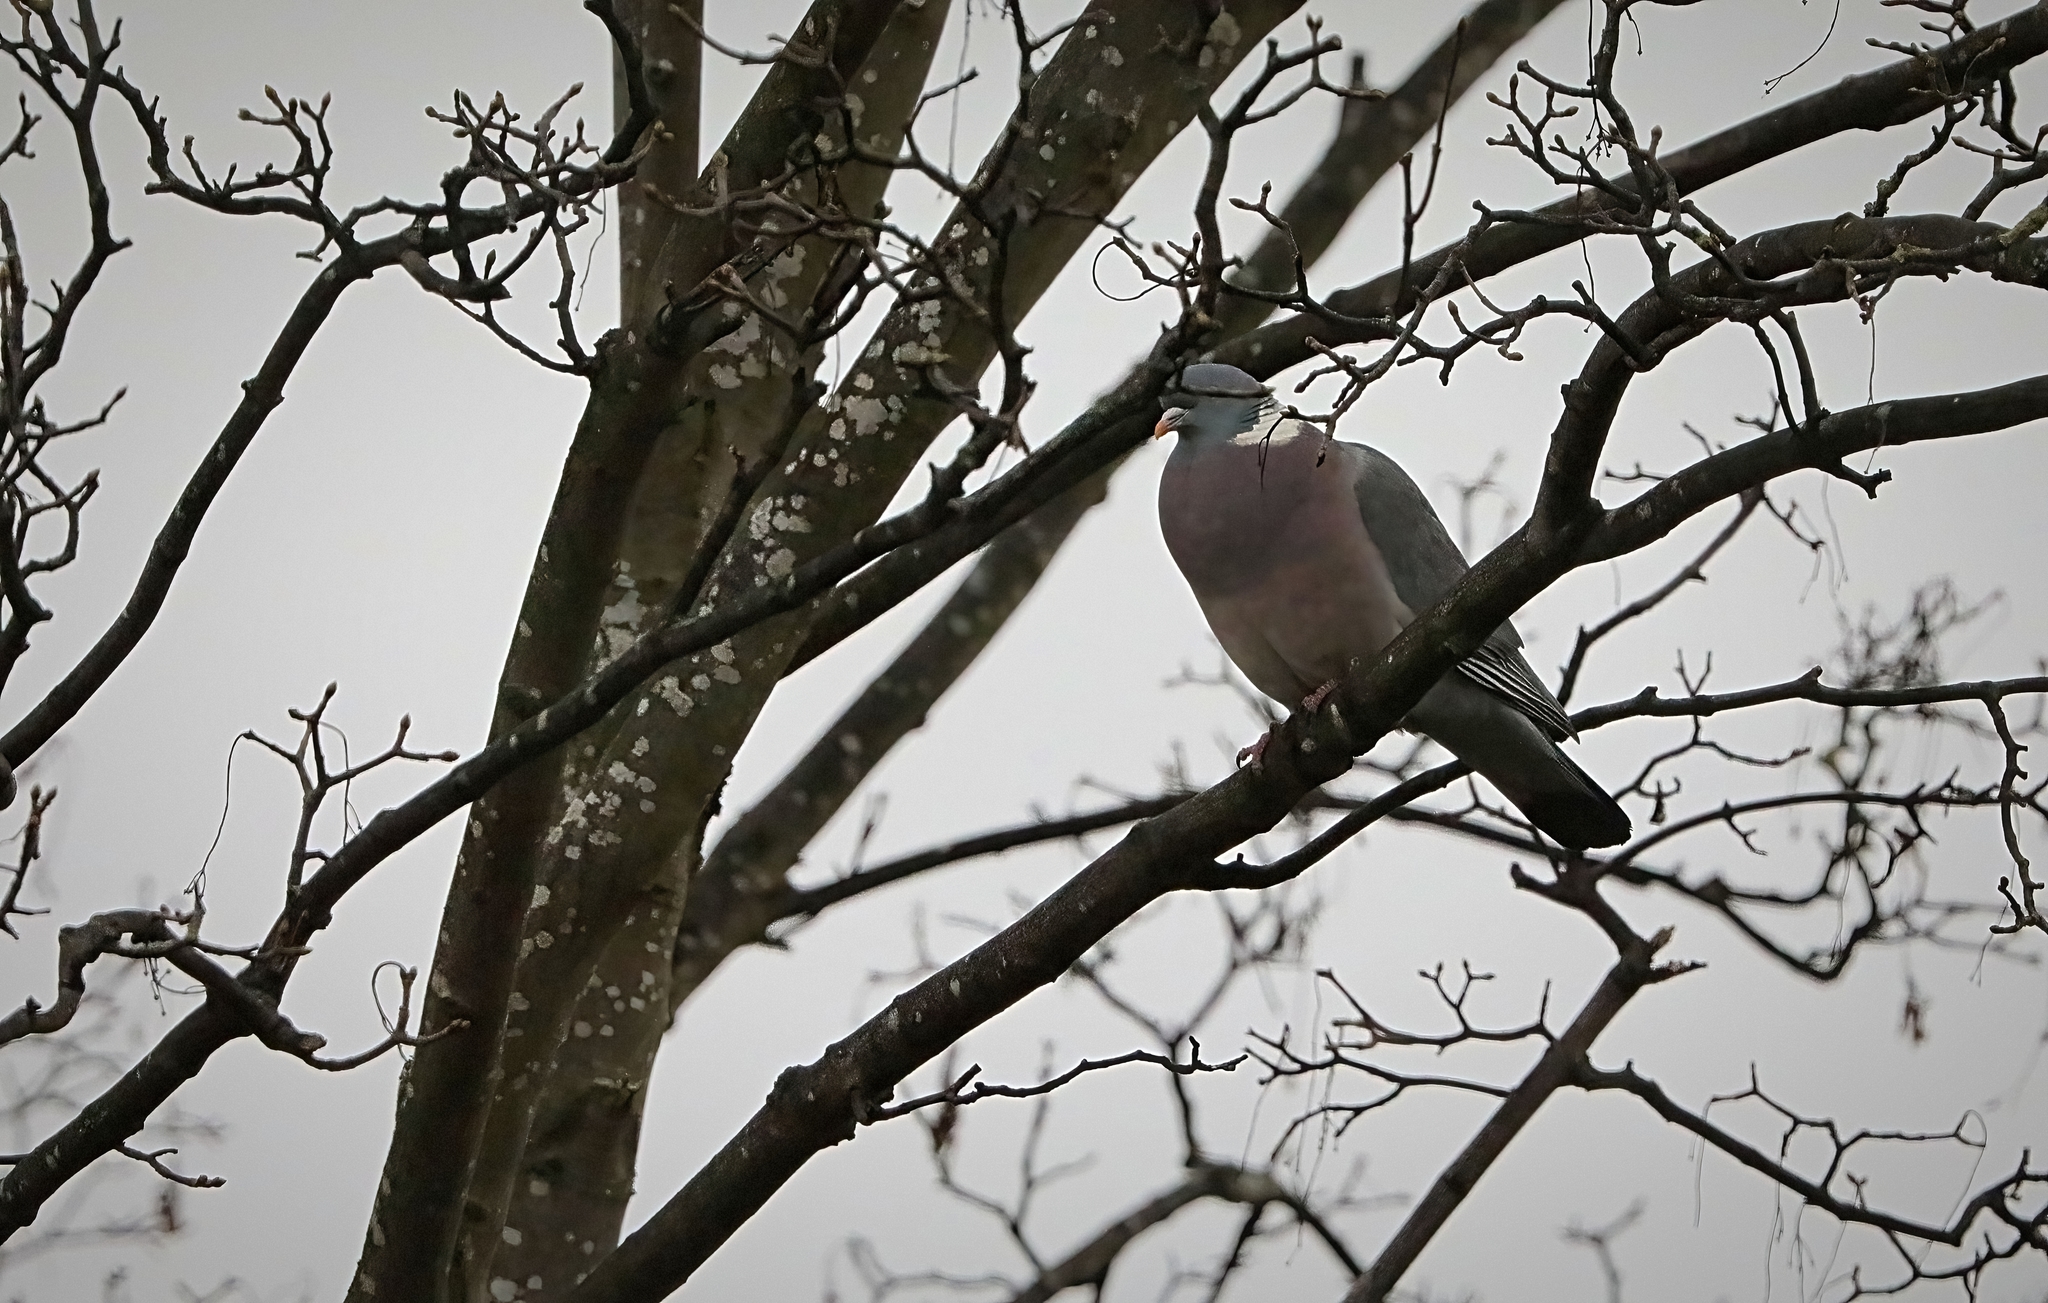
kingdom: Animalia
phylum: Chordata
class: Aves
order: Columbiformes
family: Columbidae
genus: Columba
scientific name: Columba palumbus
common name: Common wood pigeon
